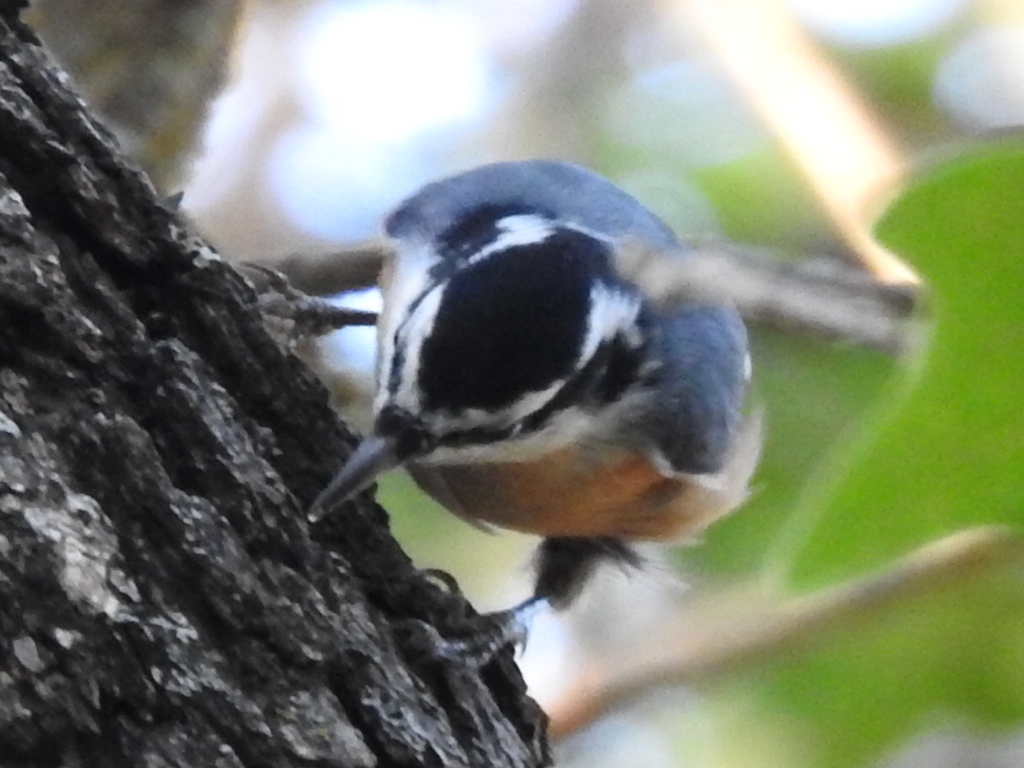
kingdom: Animalia
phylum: Chordata
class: Aves
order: Passeriformes
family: Sittidae
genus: Sitta
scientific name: Sitta canadensis
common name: Red-breasted nuthatch
